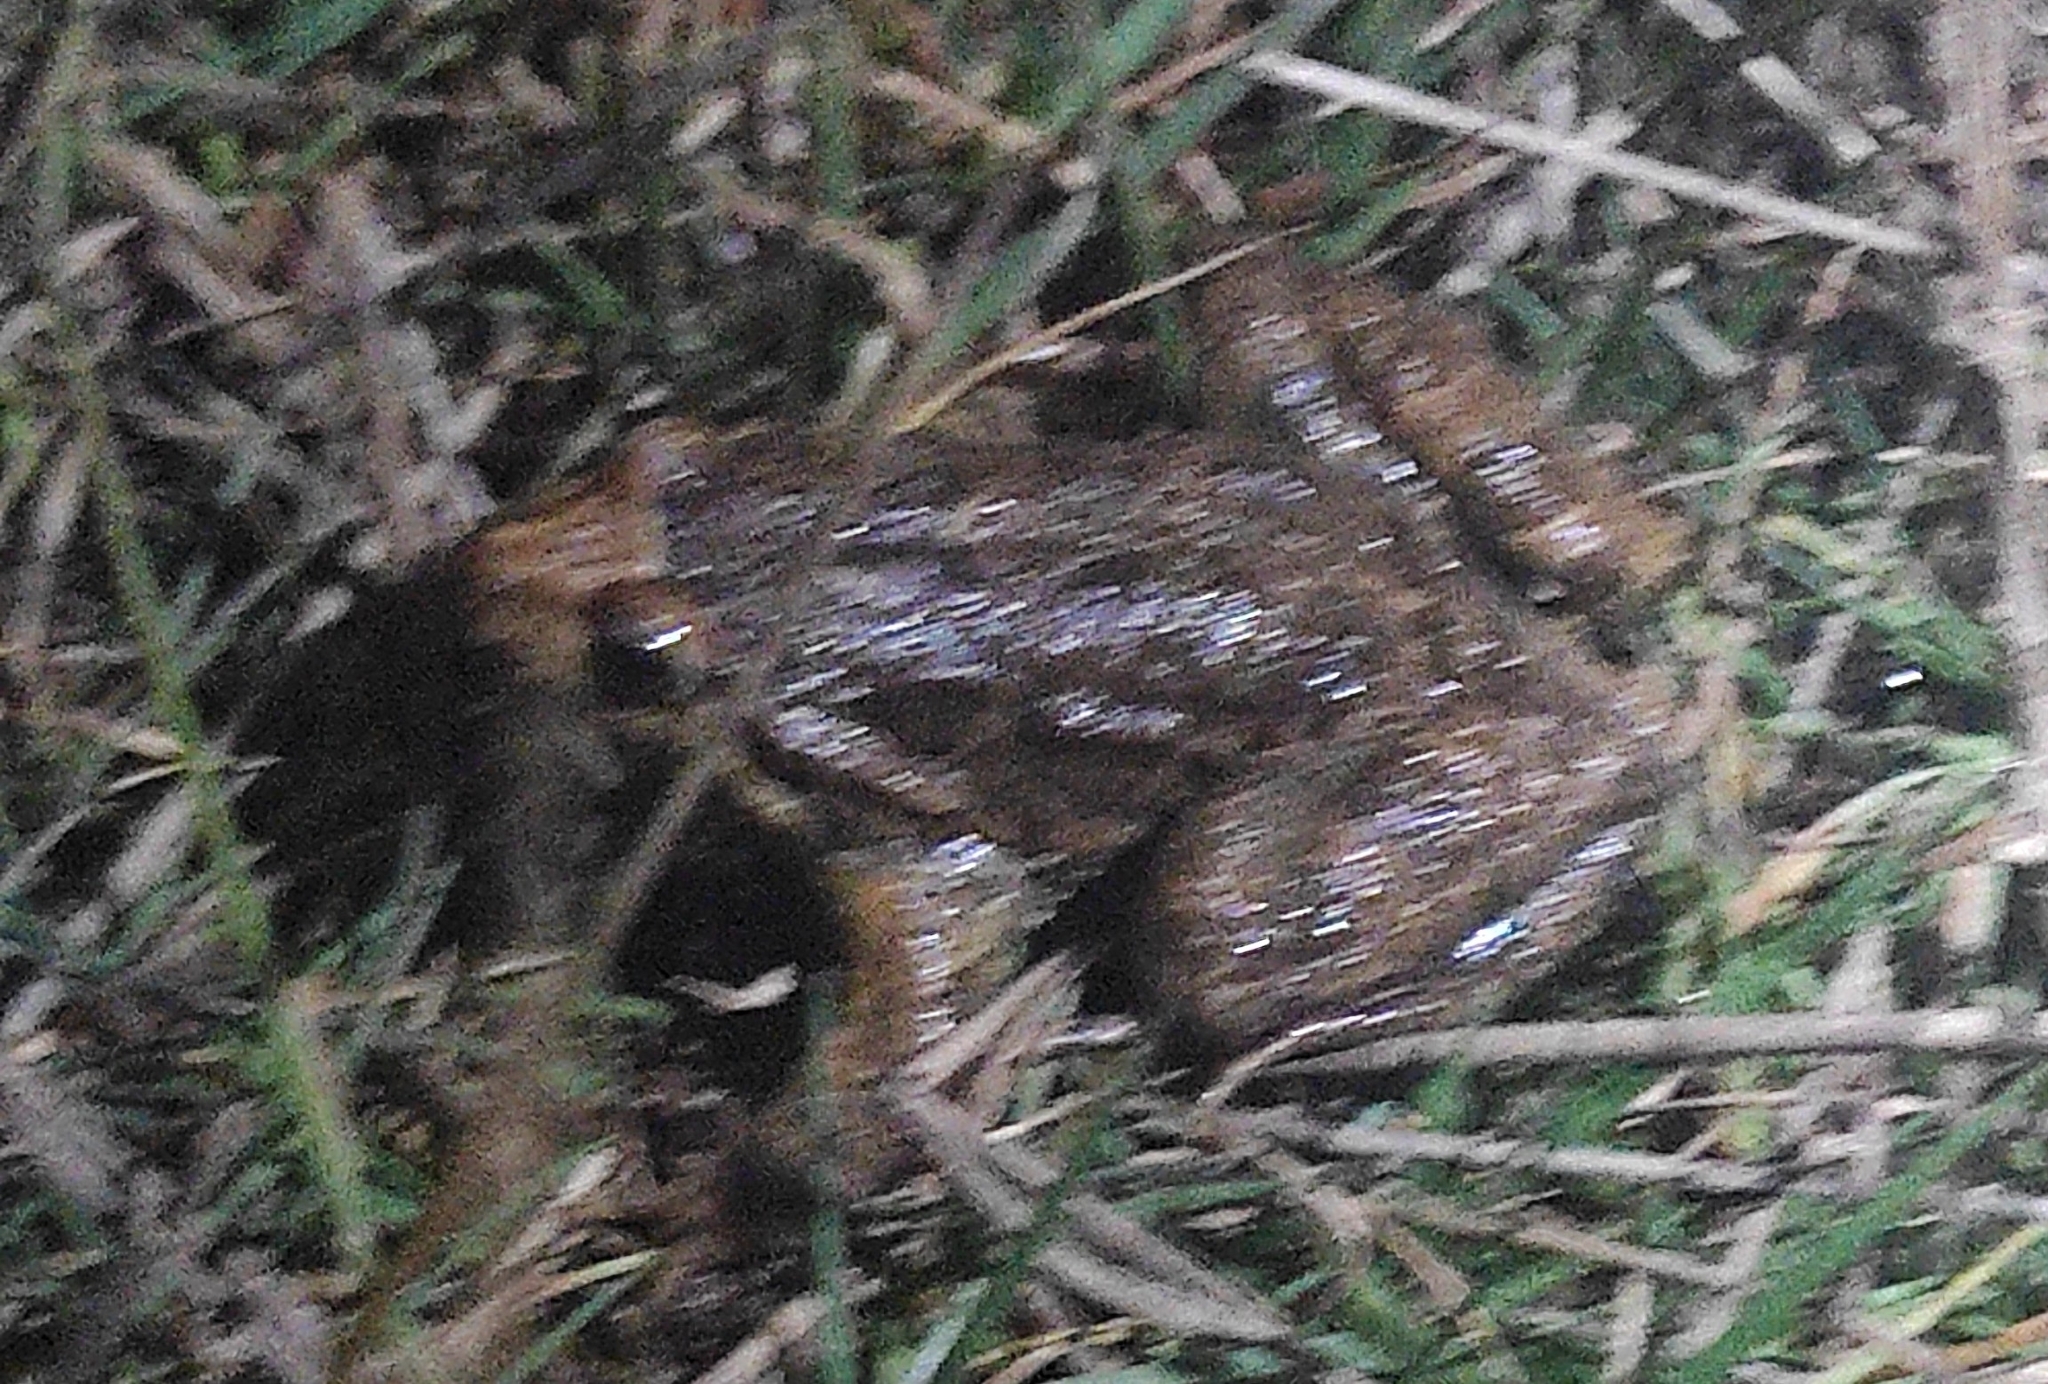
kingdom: Animalia
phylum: Chordata
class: Amphibia
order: Anura
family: Alytidae
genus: Discoglossus
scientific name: Discoglossus galganoi
